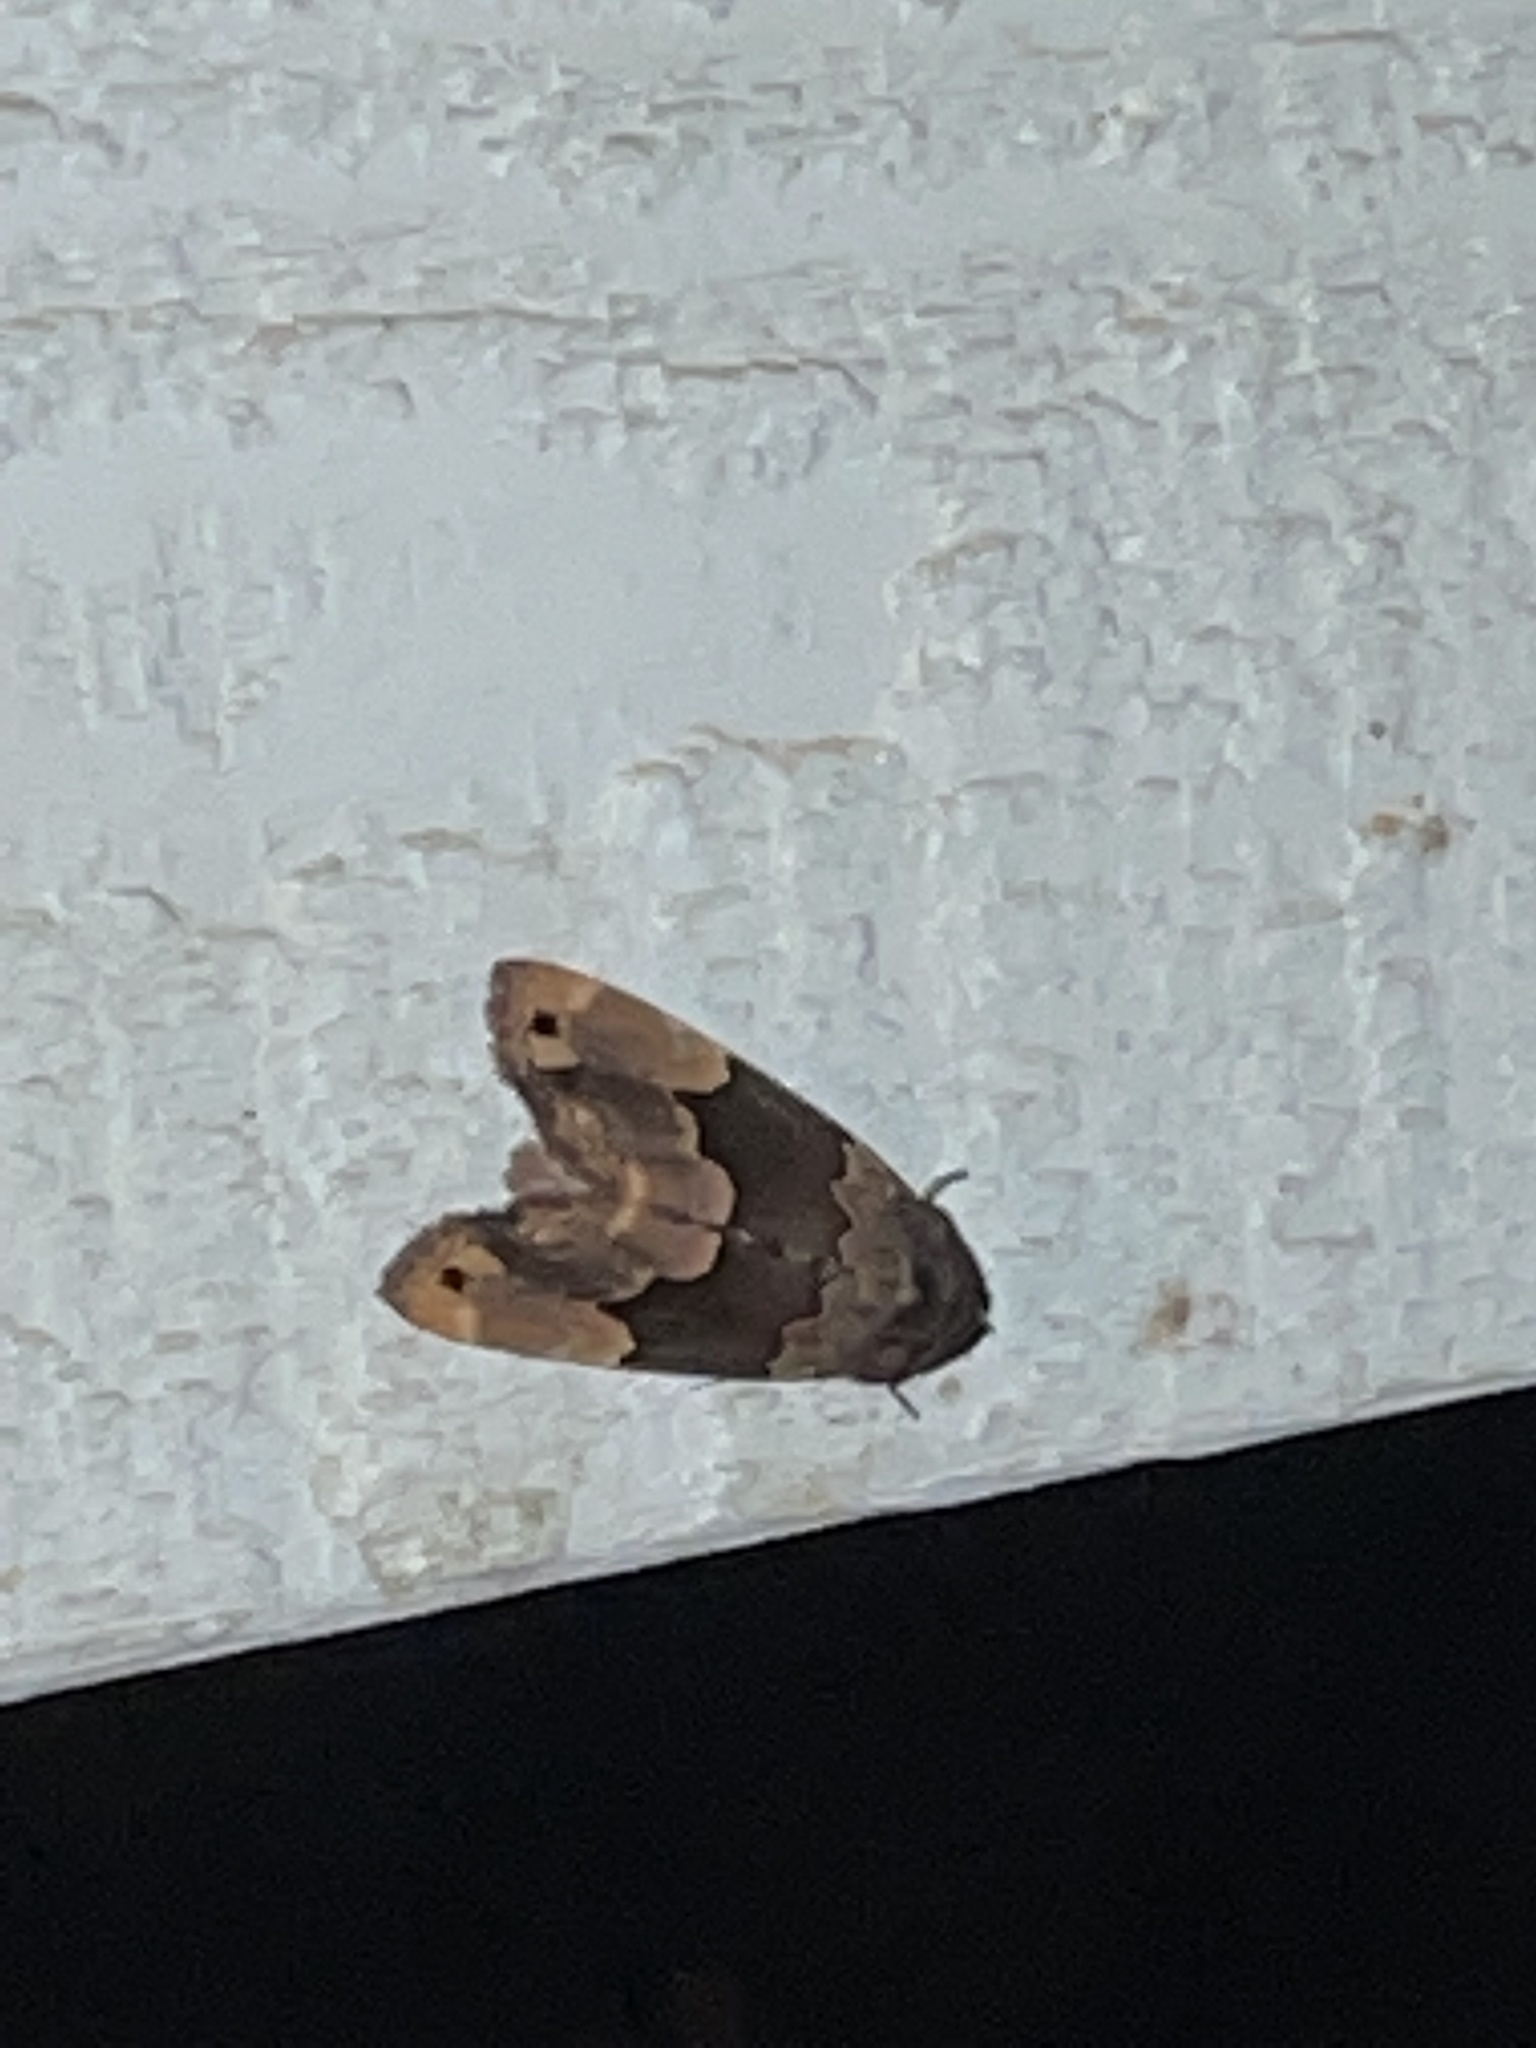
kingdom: Animalia
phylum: Arthropoda
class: Insecta
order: Lepidoptera
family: Erebidae
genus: Dinumma
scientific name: Dinumma deponens
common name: Purplish moth
